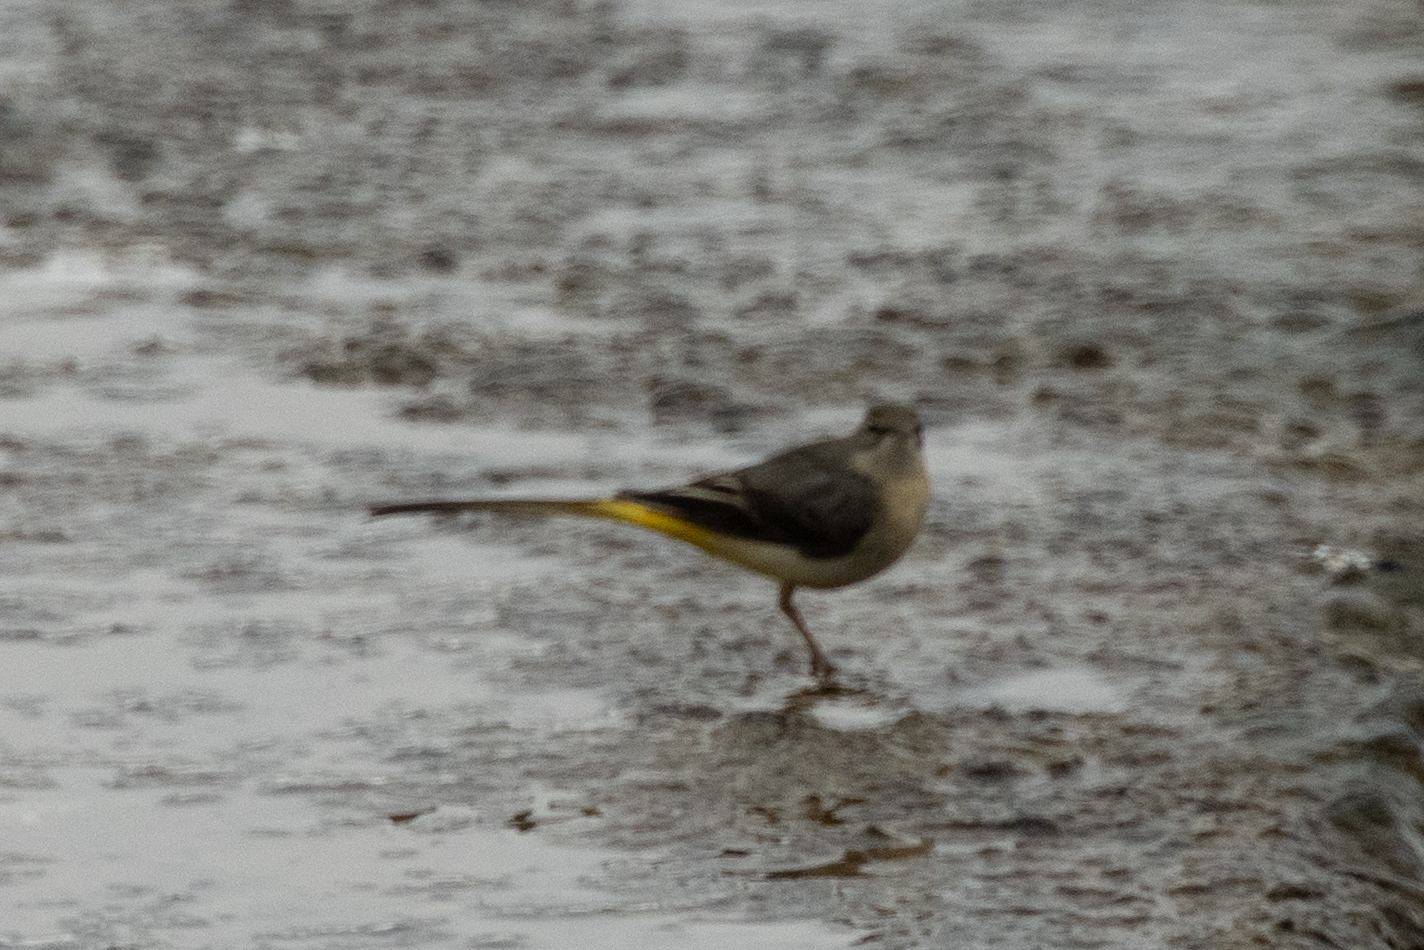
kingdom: Animalia
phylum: Chordata
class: Aves
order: Passeriformes
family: Motacillidae
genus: Motacilla
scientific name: Motacilla cinerea
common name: Grey wagtail
